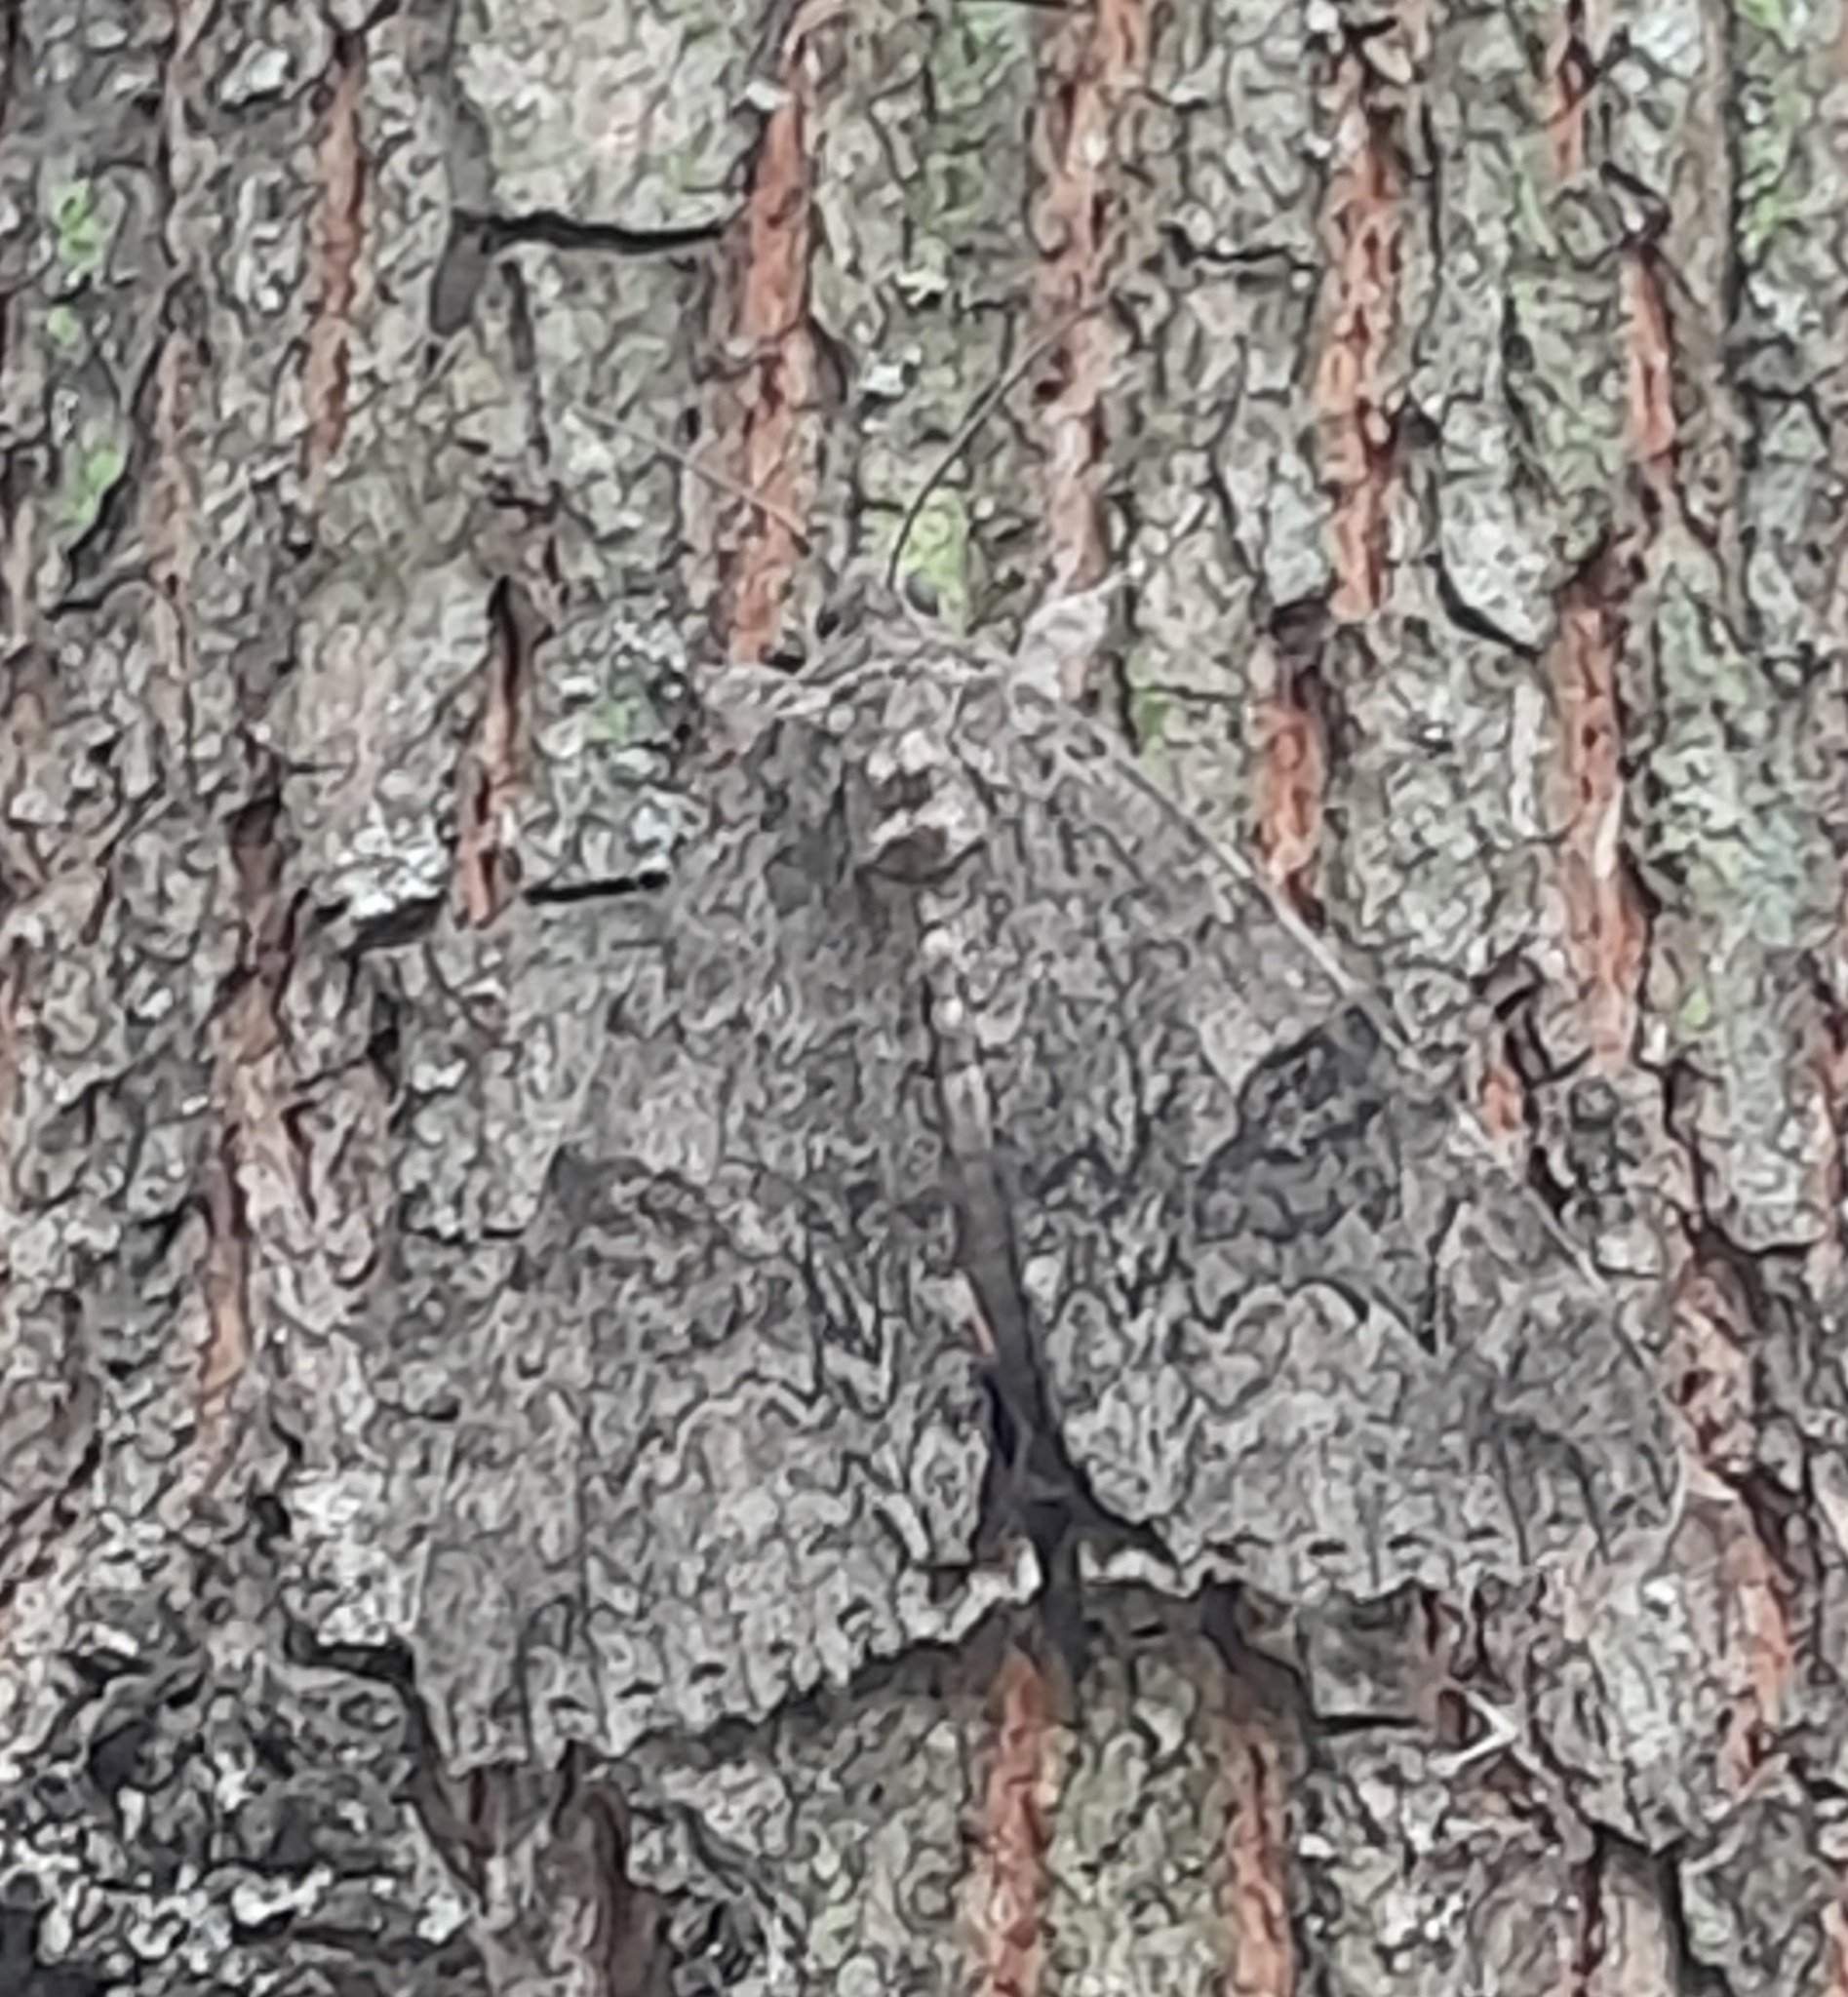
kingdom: Animalia
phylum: Arthropoda
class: Insecta
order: Lepidoptera
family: Erebidae
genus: Catocala
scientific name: Catocala nupta
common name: Red underwing
